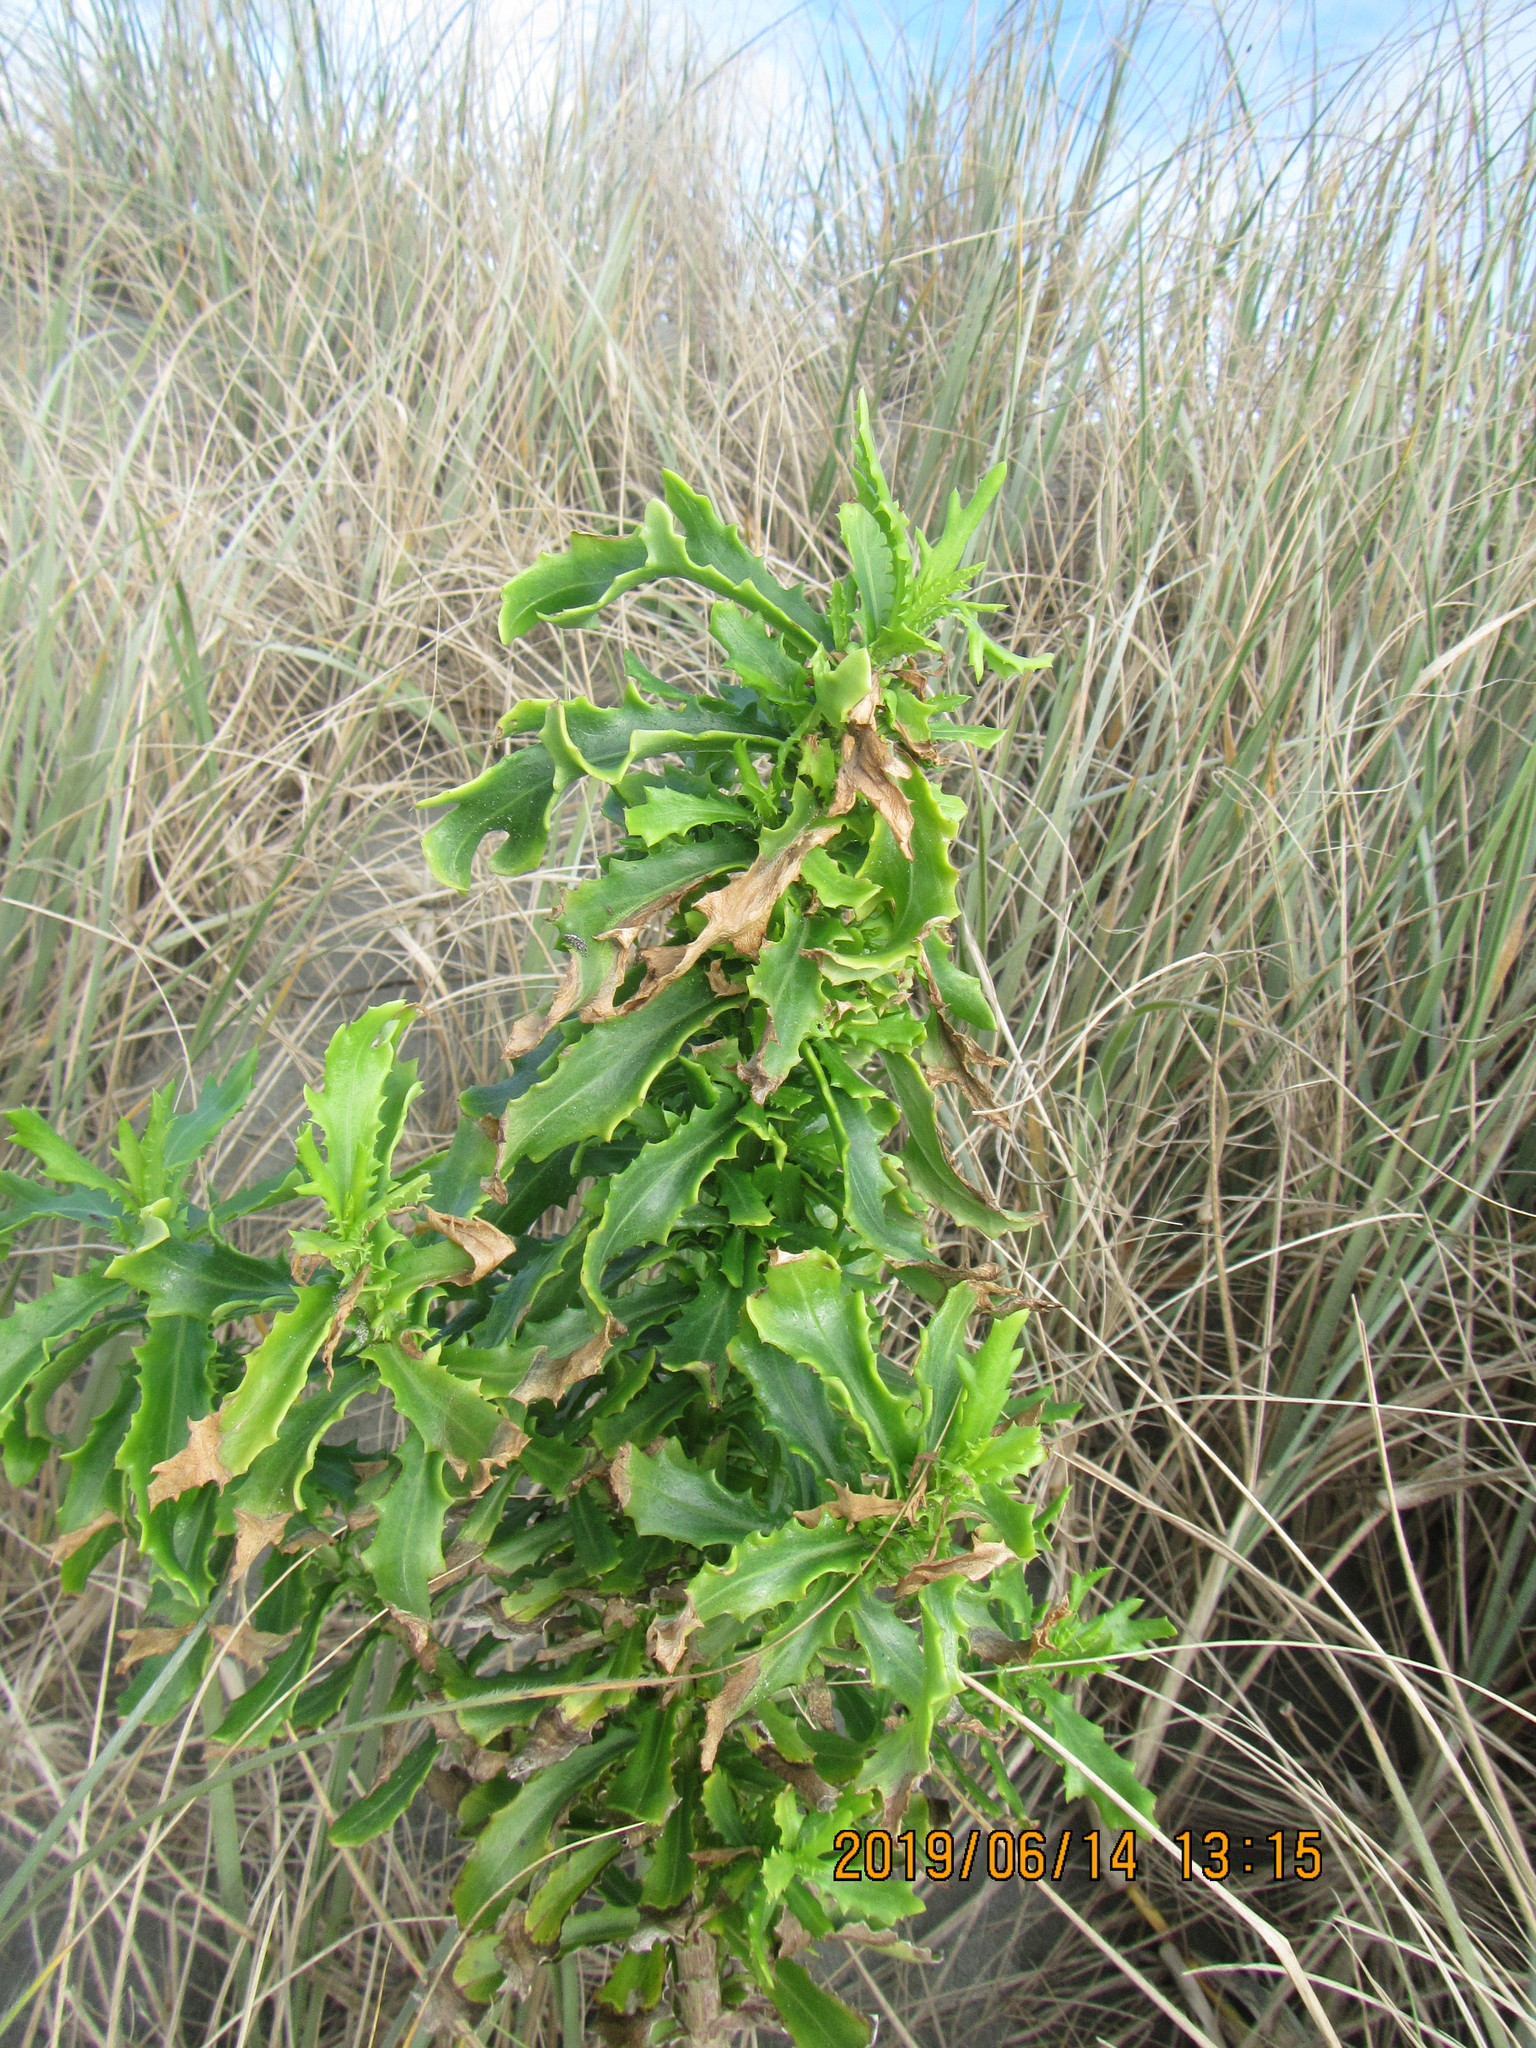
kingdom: Plantae
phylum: Tracheophyta
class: Magnoliopsida
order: Asterales
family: Asteraceae
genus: Senecio
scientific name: Senecio glastifolius
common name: Woad-leaved ragwort
